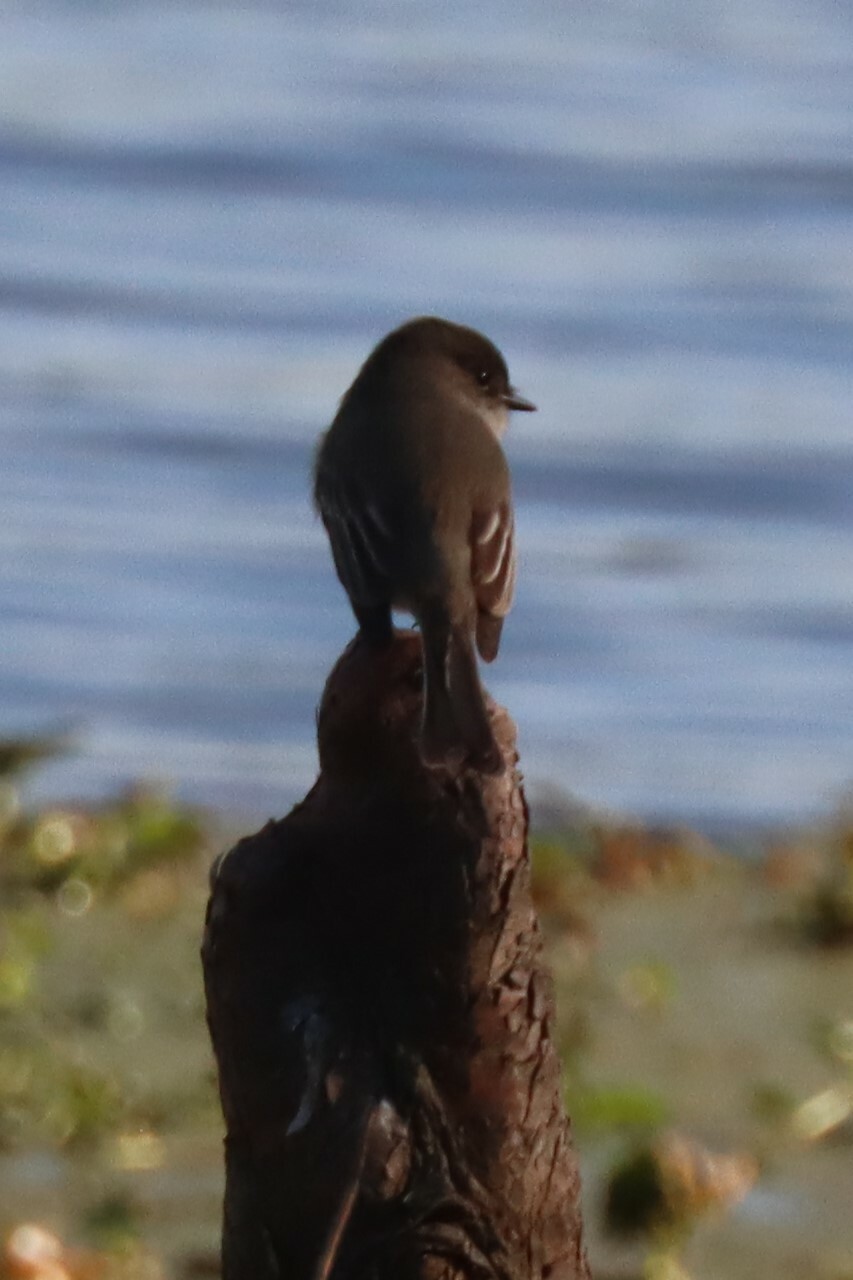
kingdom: Animalia
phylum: Chordata
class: Aves
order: Passeriformes
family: Tyrannidae
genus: Sayornis
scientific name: Sayornis phoebe
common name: Eastern phoebe
